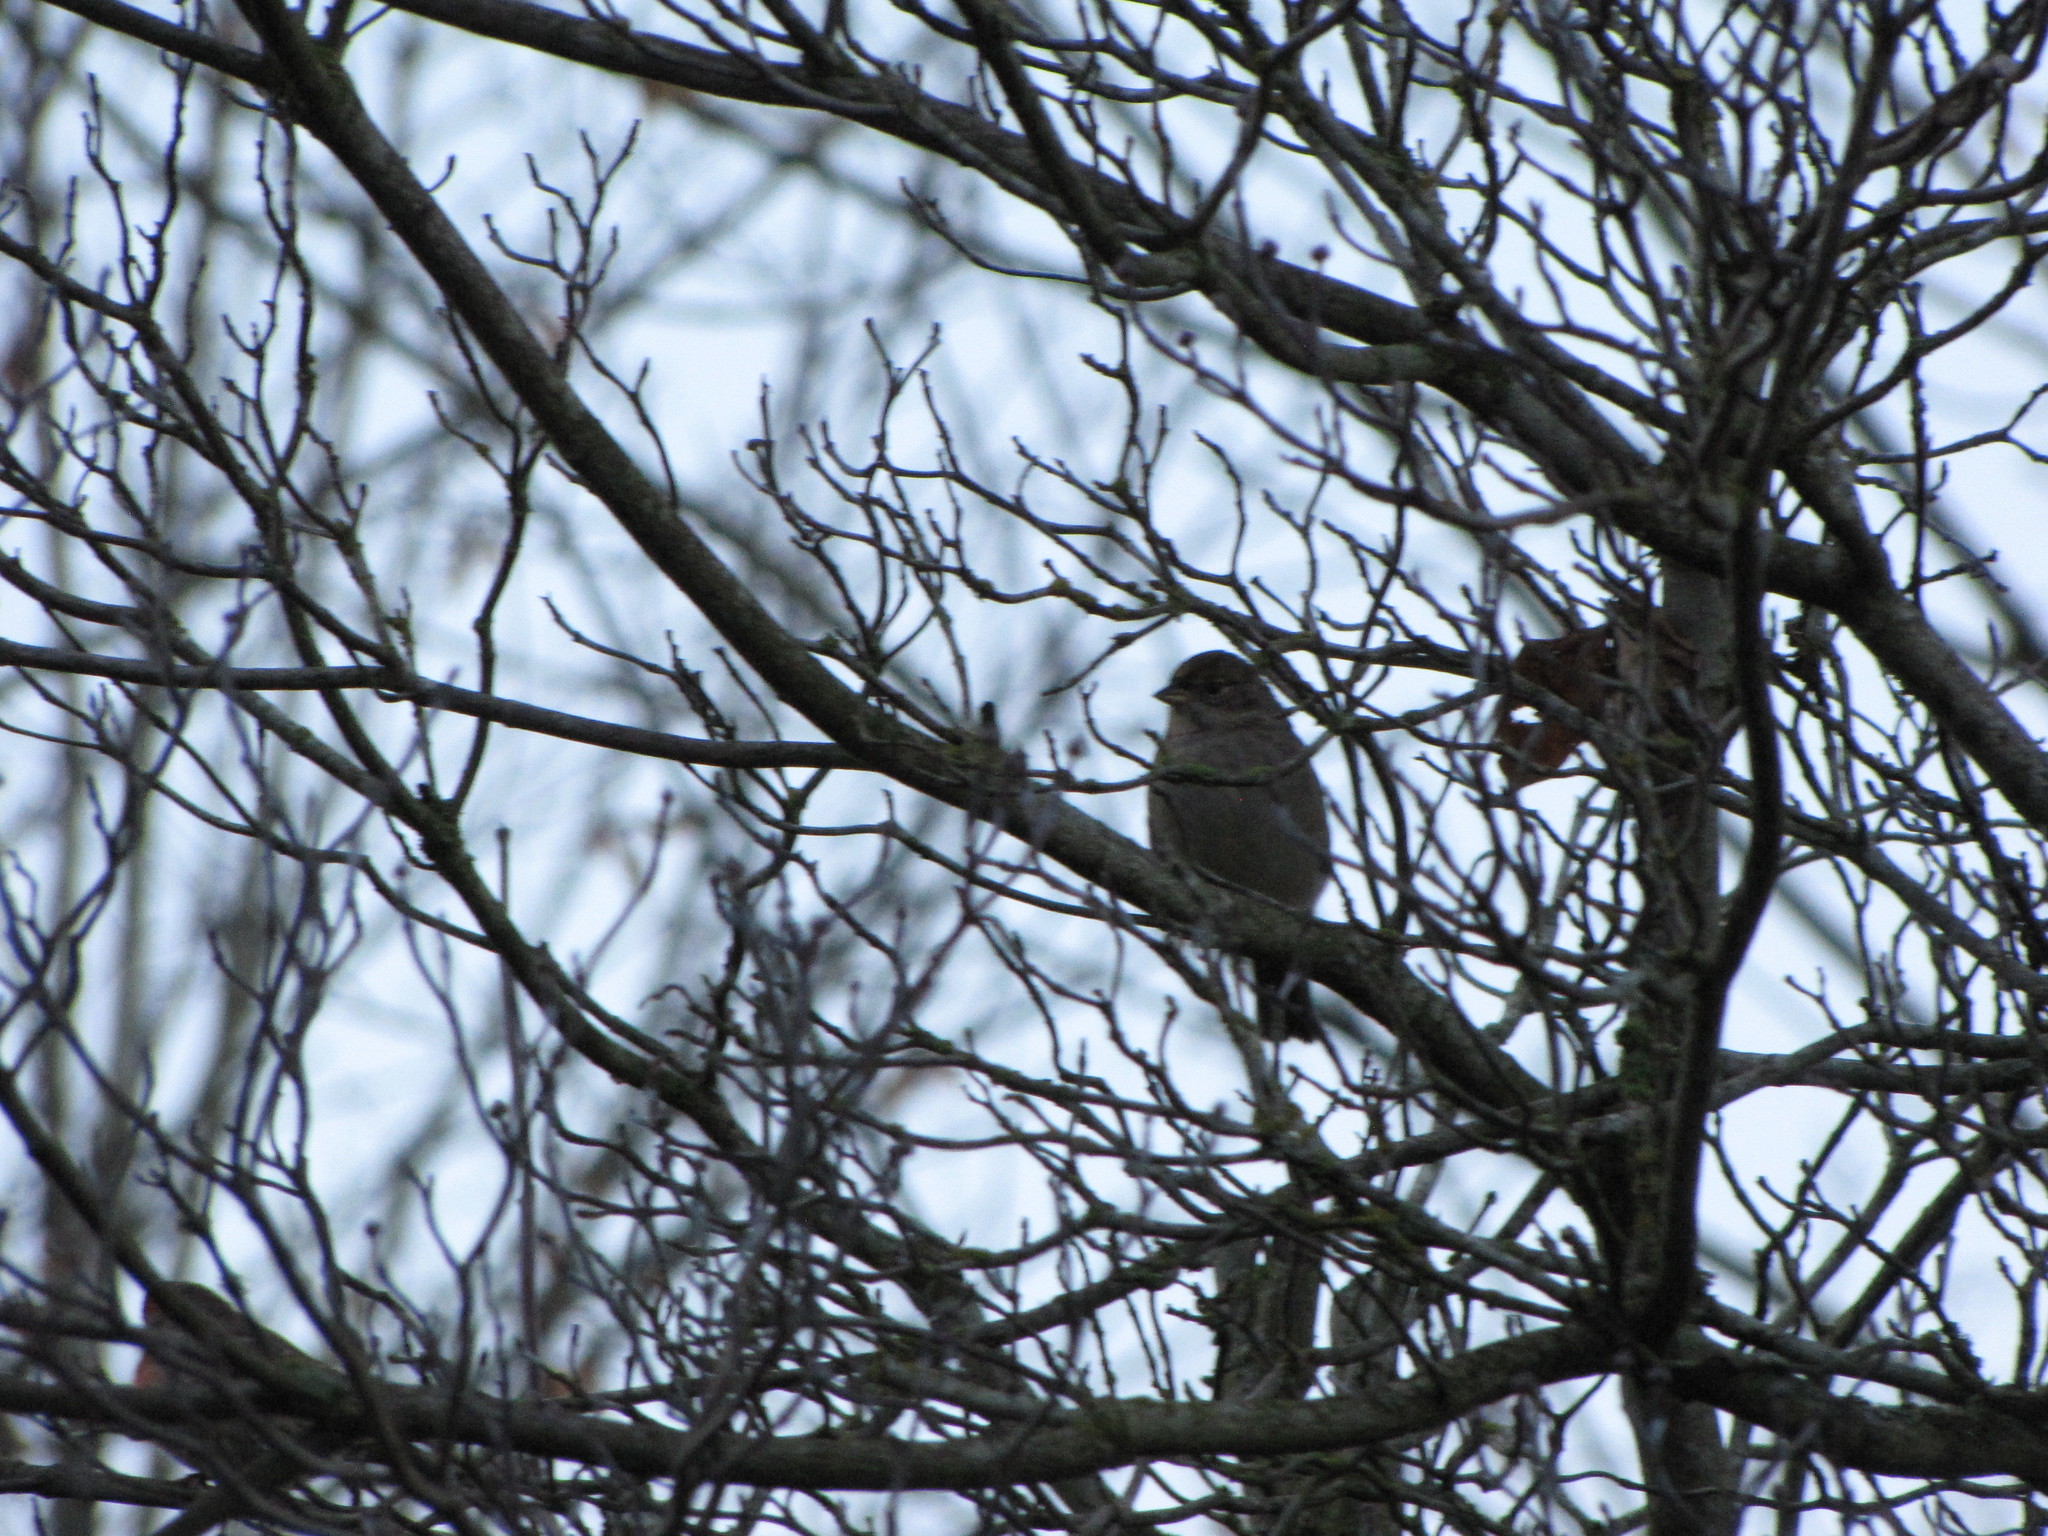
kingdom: Animalia
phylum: Chordata
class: Aves
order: Passeriformes
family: Passerellidae
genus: Zonotrichia
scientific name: Zonotrichia atricapilla
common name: Golden-crowned sparrow
